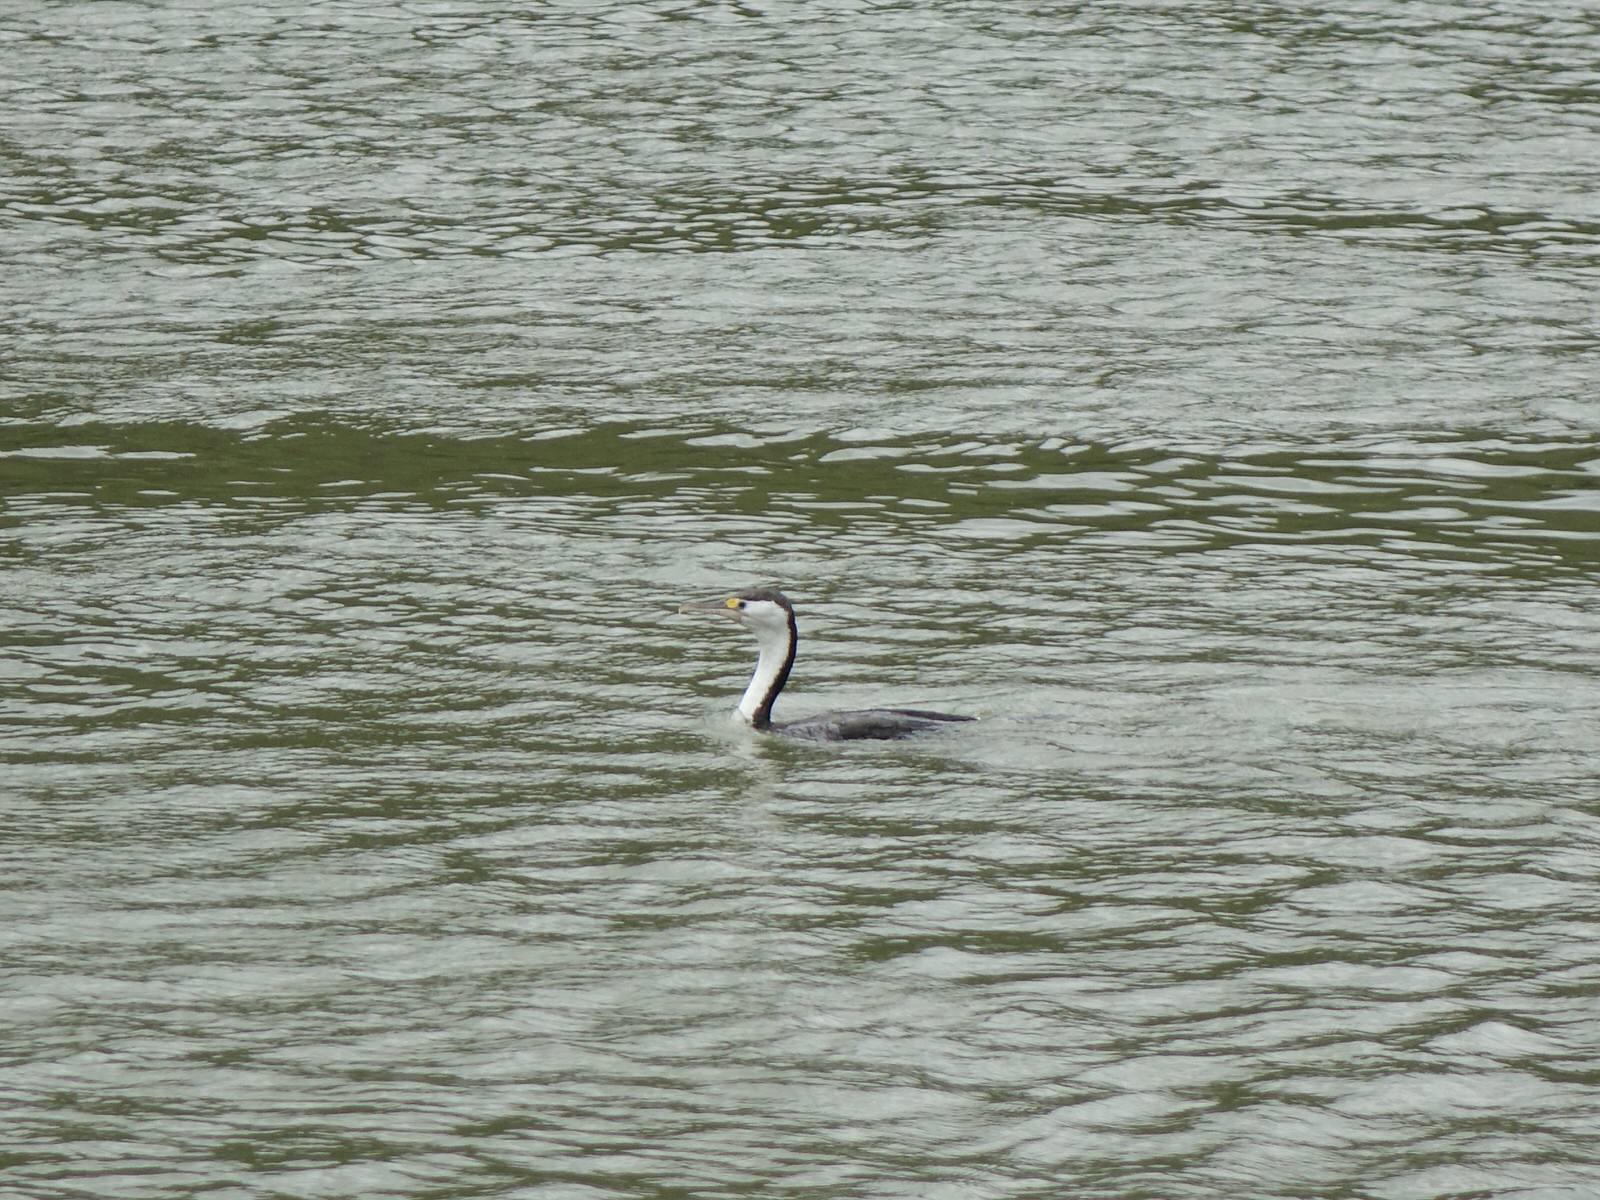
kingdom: Animalia
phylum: Chordata
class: Aves
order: Suliformes
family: Phalacrocoracidae
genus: Phalacrocorax
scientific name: Phalacrocorax varius
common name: Pied cormorant
